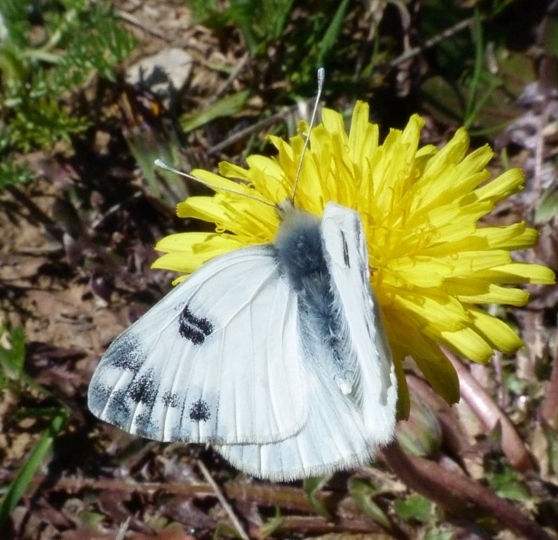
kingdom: Animalia
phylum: Arthropoda
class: Insecta
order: Lepidoptera
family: Pieridae
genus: Pontia
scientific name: Pontia daplidice
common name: Bath white
